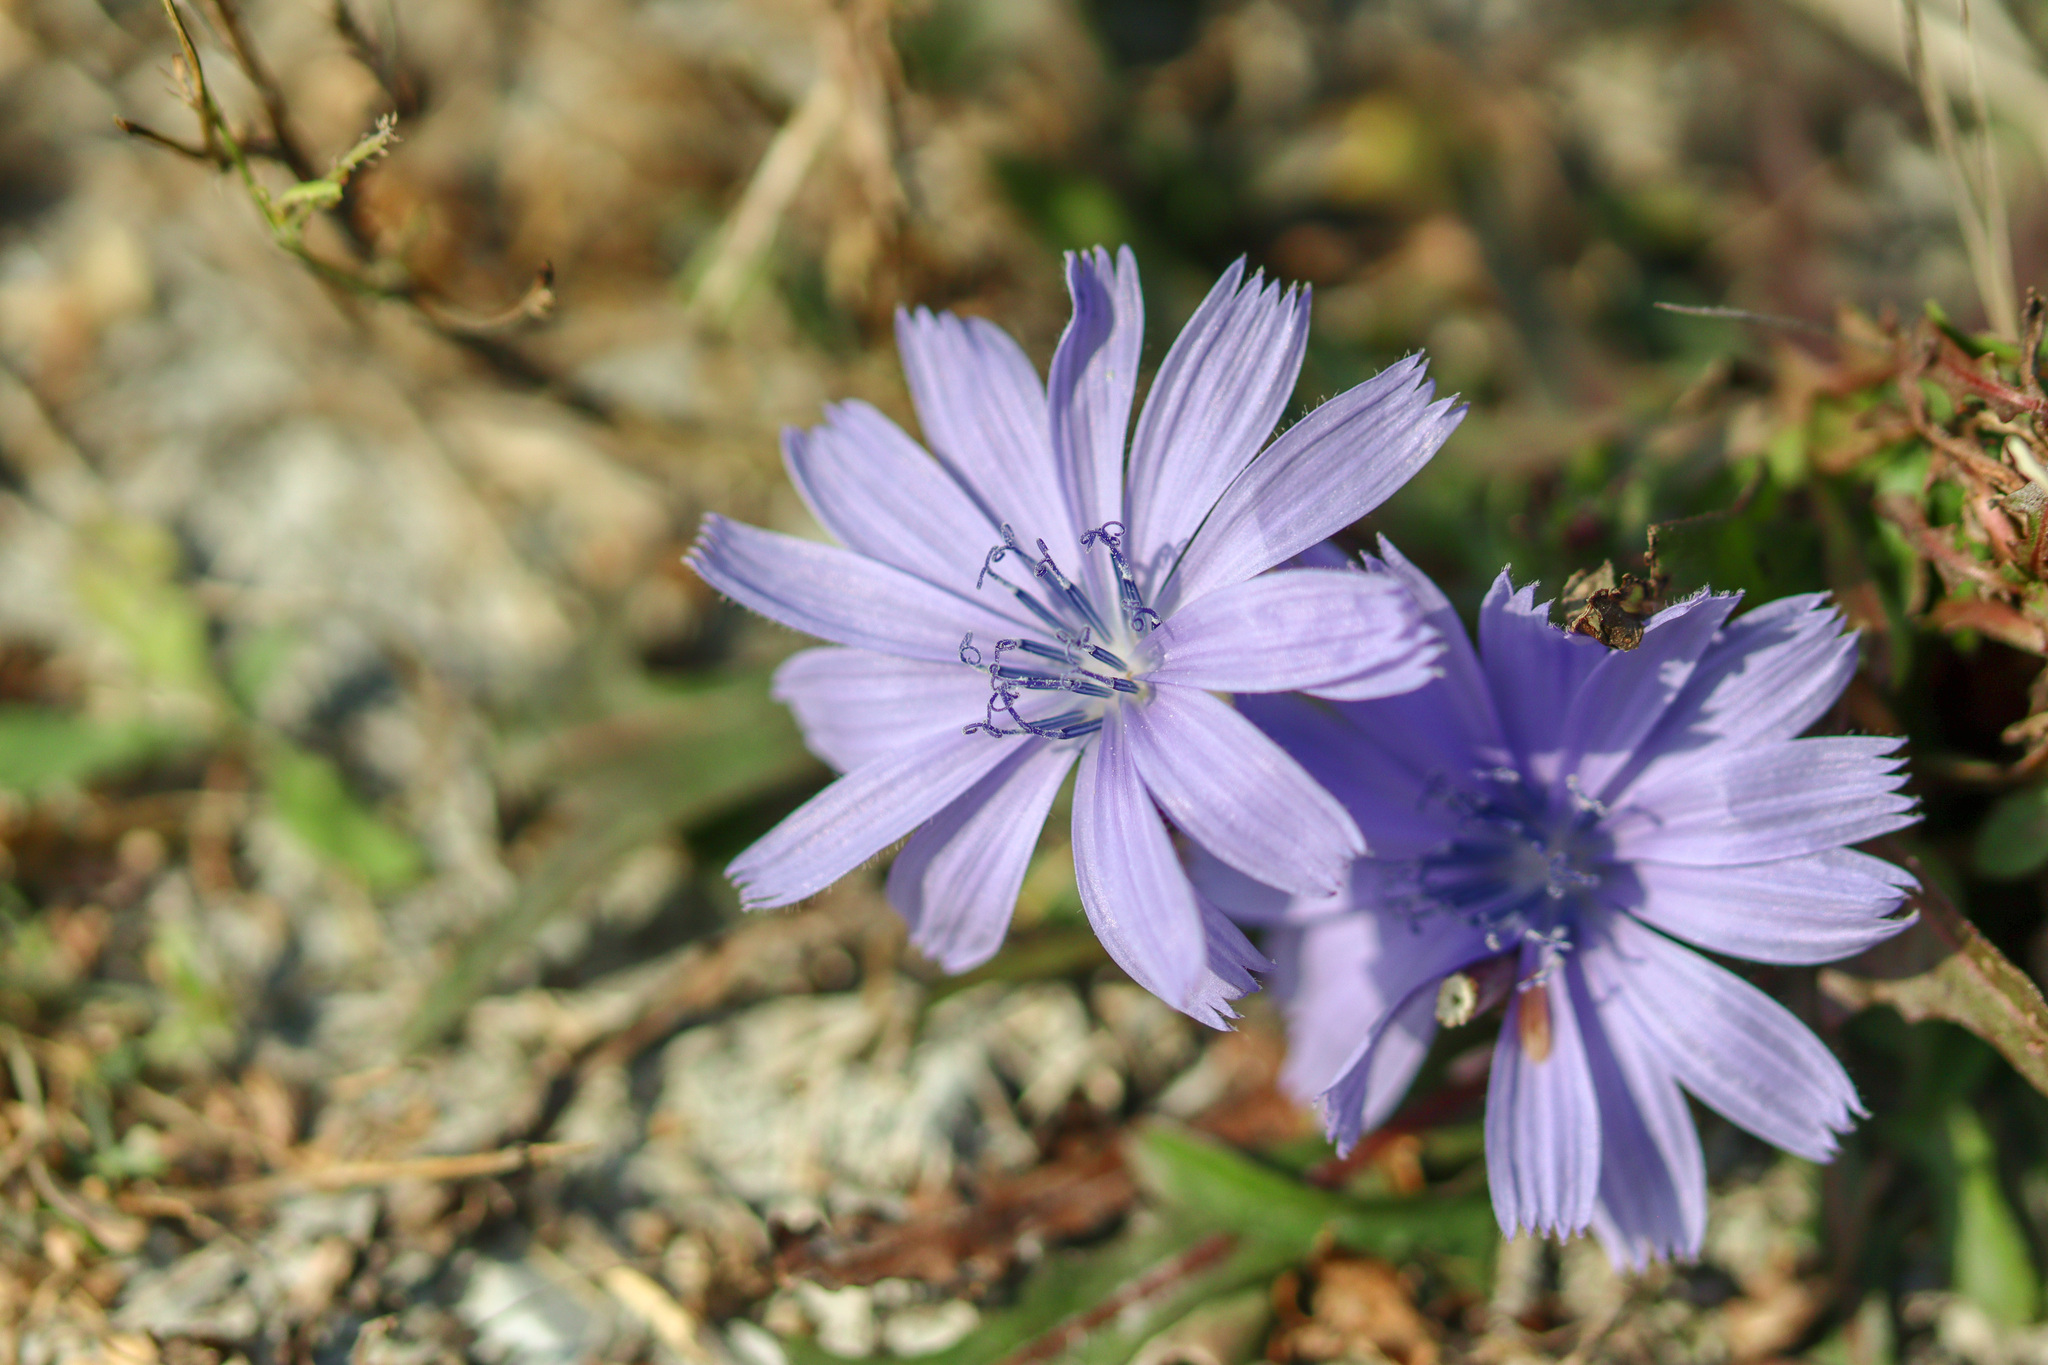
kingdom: Plantae
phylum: Tracheophyta
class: Magnoliopsida
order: Asterales
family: Asteraceae
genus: Cichorium
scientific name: Cichorium intybus
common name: Chicory
